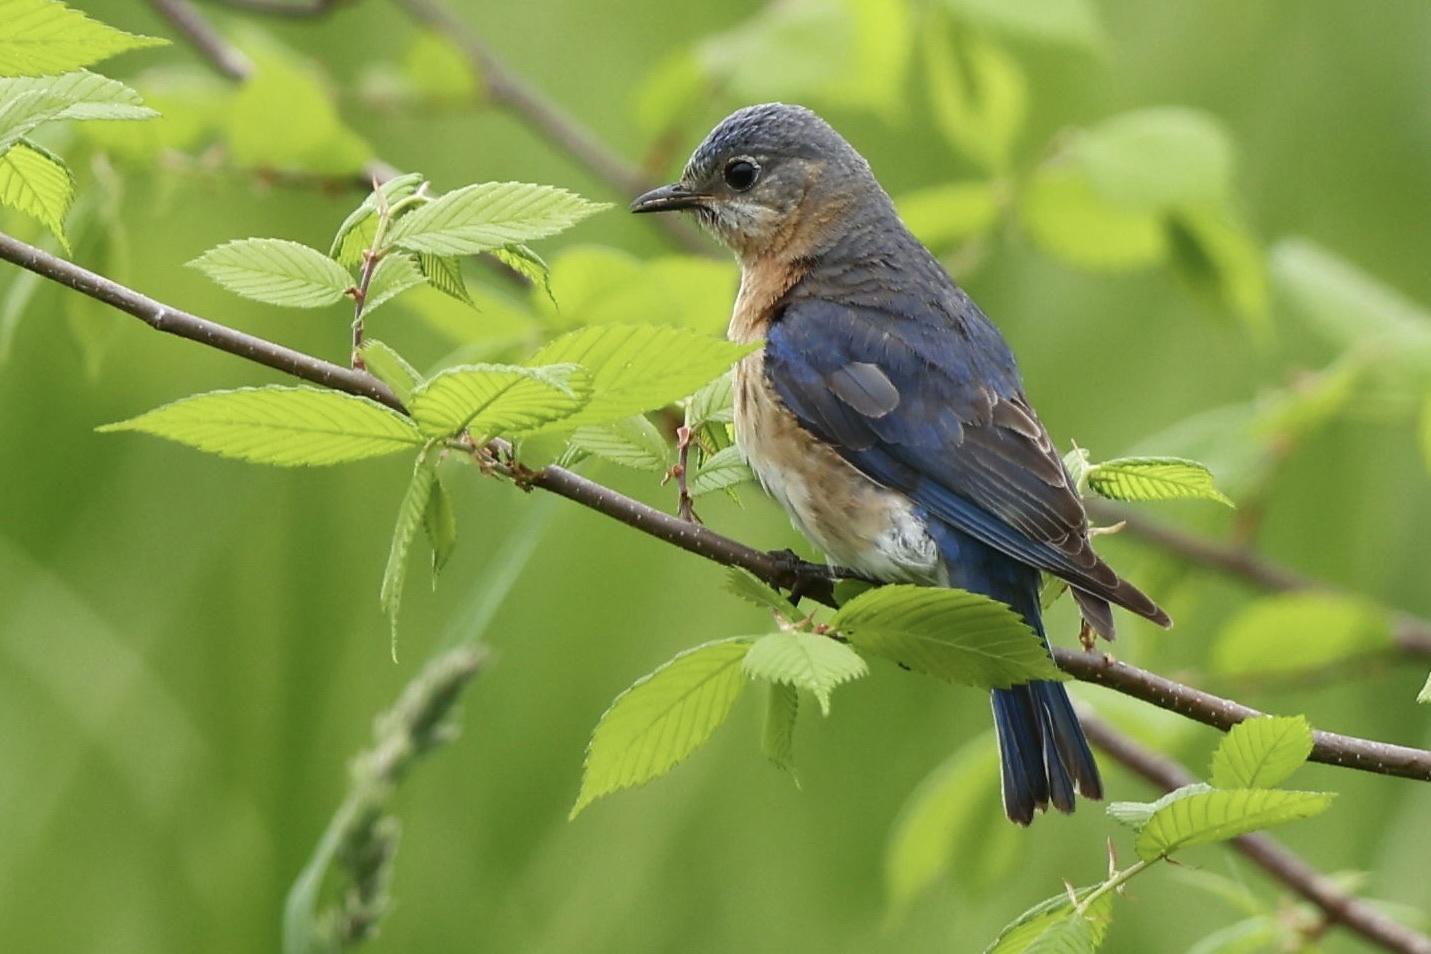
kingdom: Animalia
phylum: Chordata
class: Aves
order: Passeriformes
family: Turdidae
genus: Sialia
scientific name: Sialia sialis
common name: Eastern bluebird
